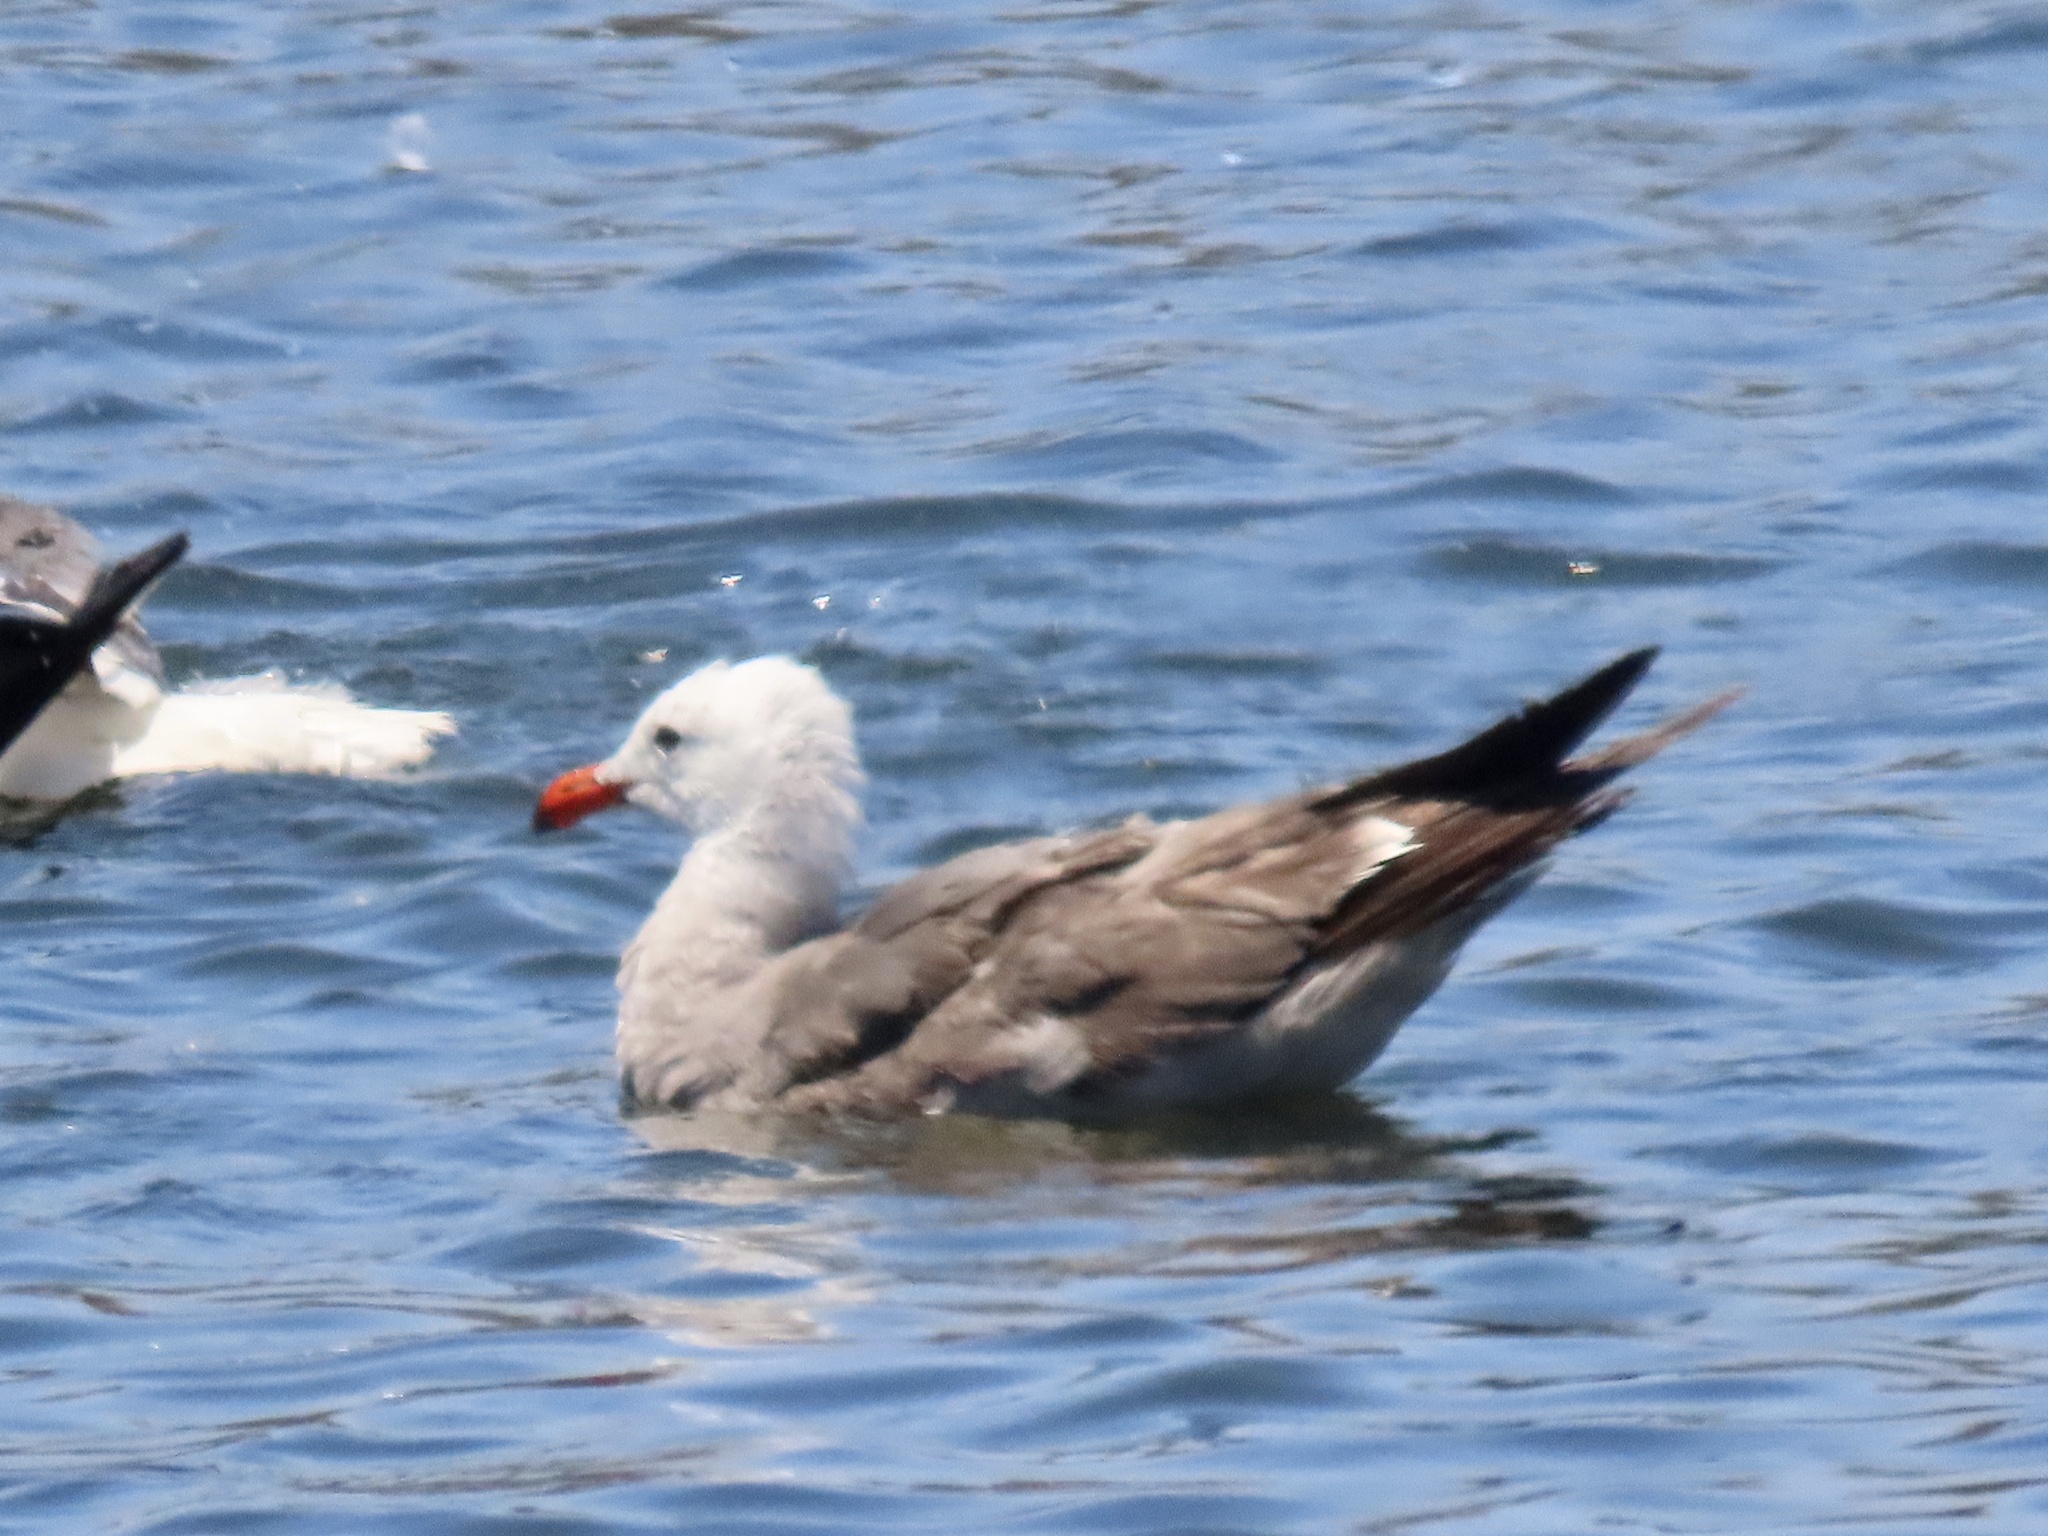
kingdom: Animalia
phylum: Chordata
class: Aves
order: Charadriiformes
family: Laridae
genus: Larus
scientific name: Larus heermanni
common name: Heermann's gull
